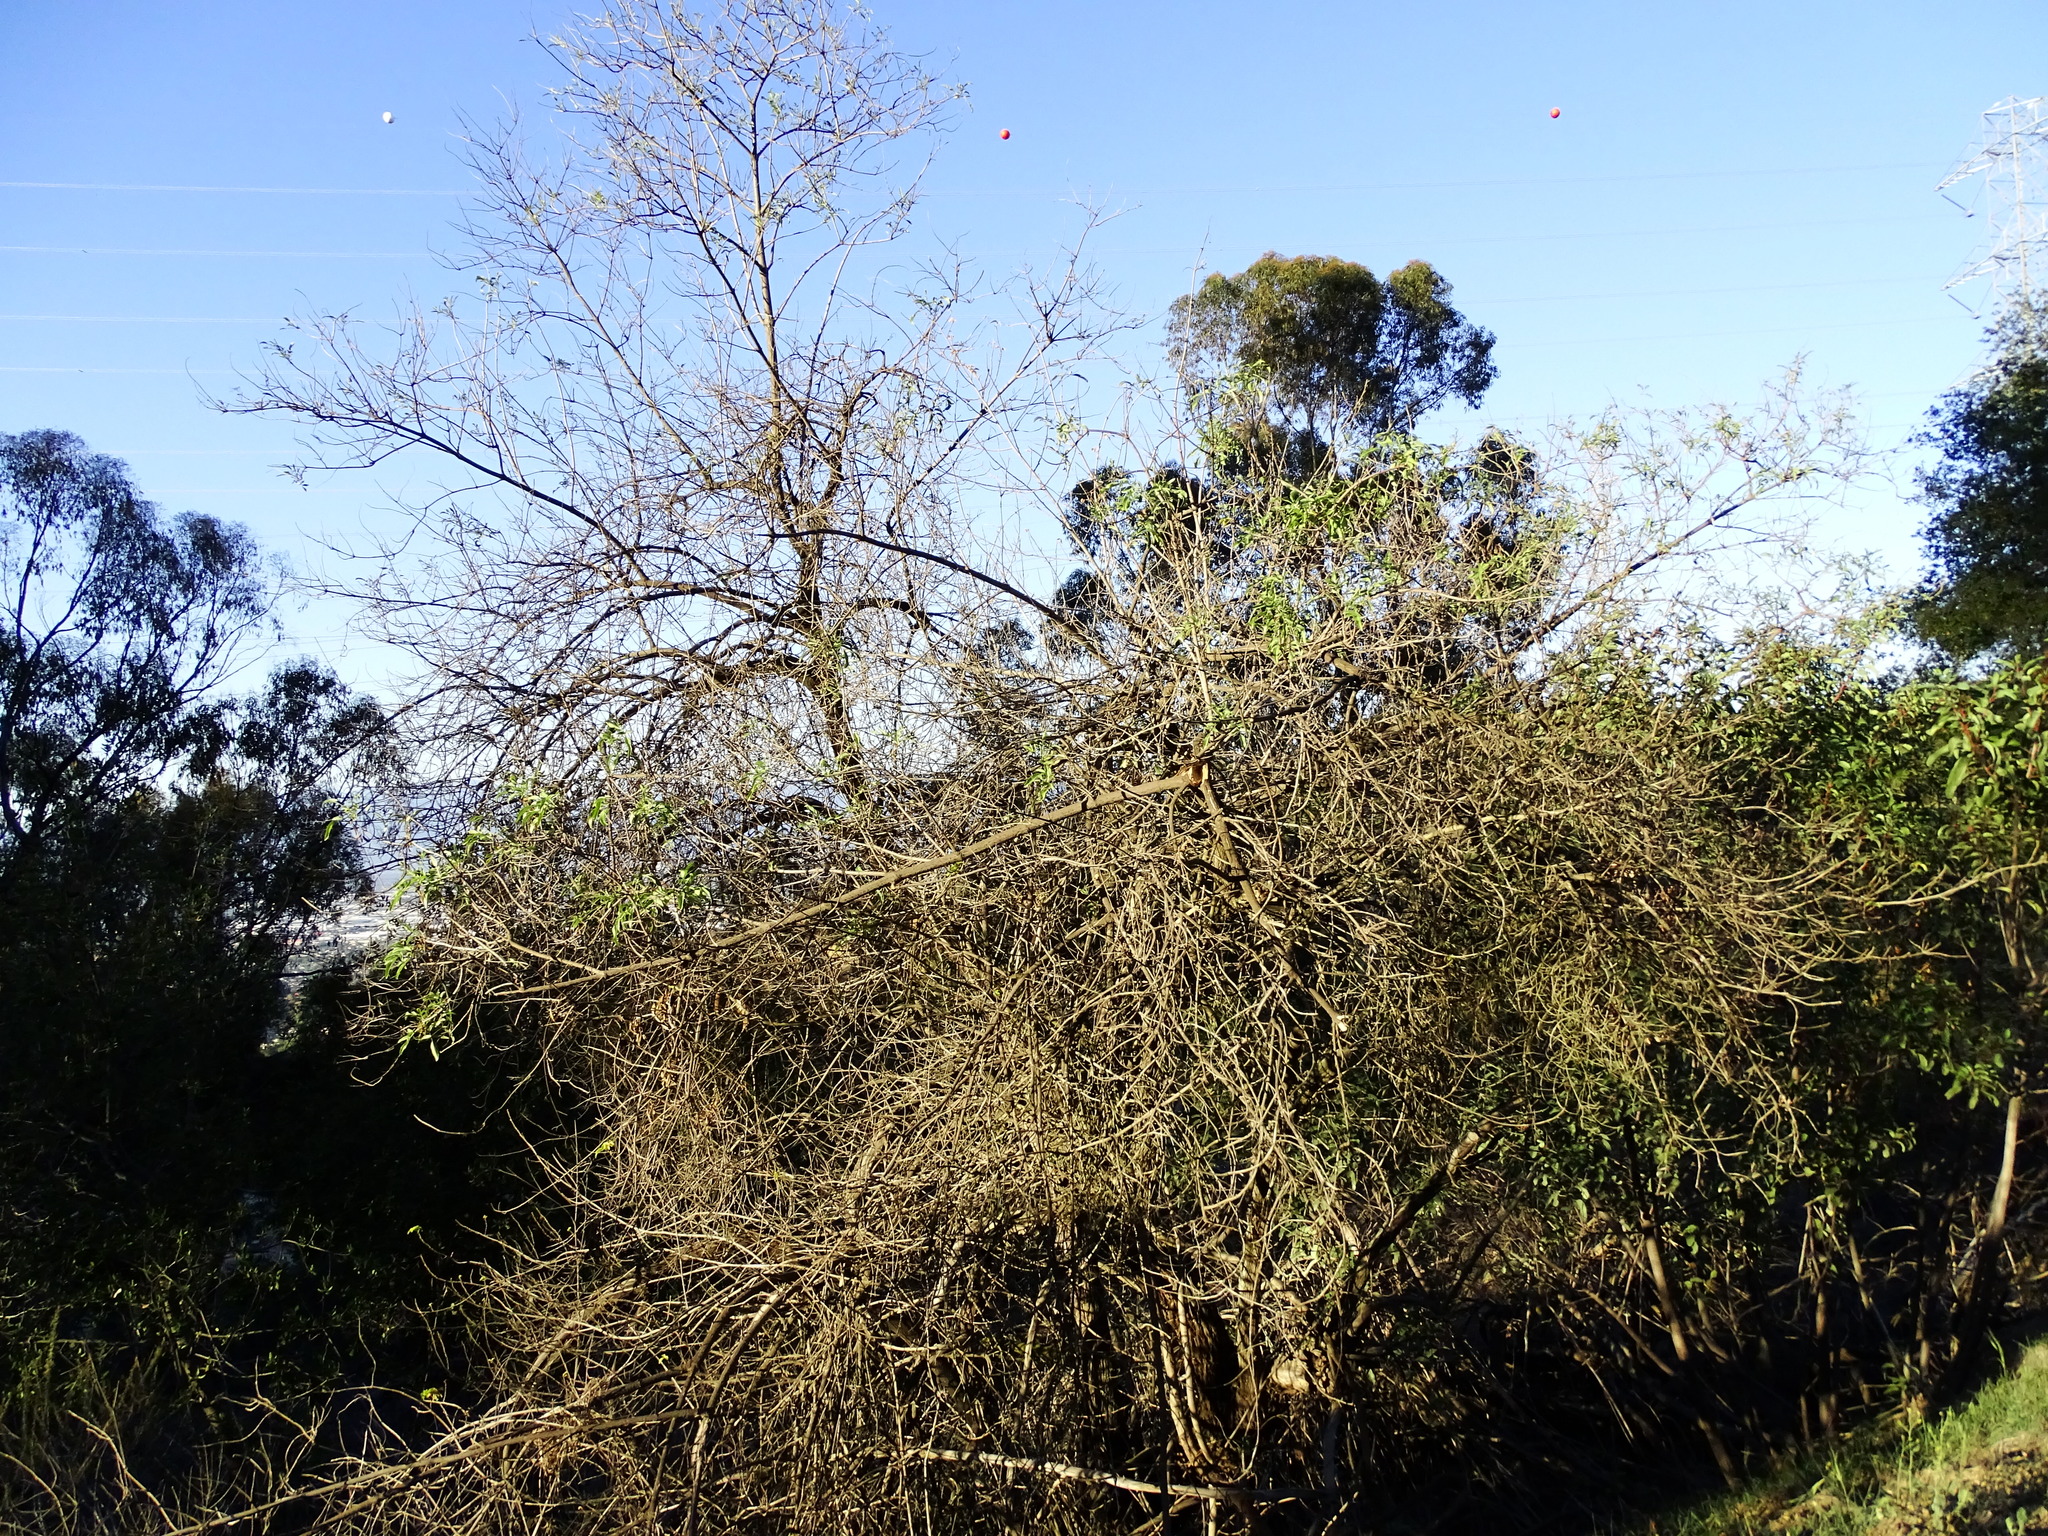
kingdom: Plantae
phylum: Tracheophyta
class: Magnoliopsida
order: Dipsacales
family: Viburnaceae
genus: Sambucus
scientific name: Sambucus cerulea
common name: Blue elder
